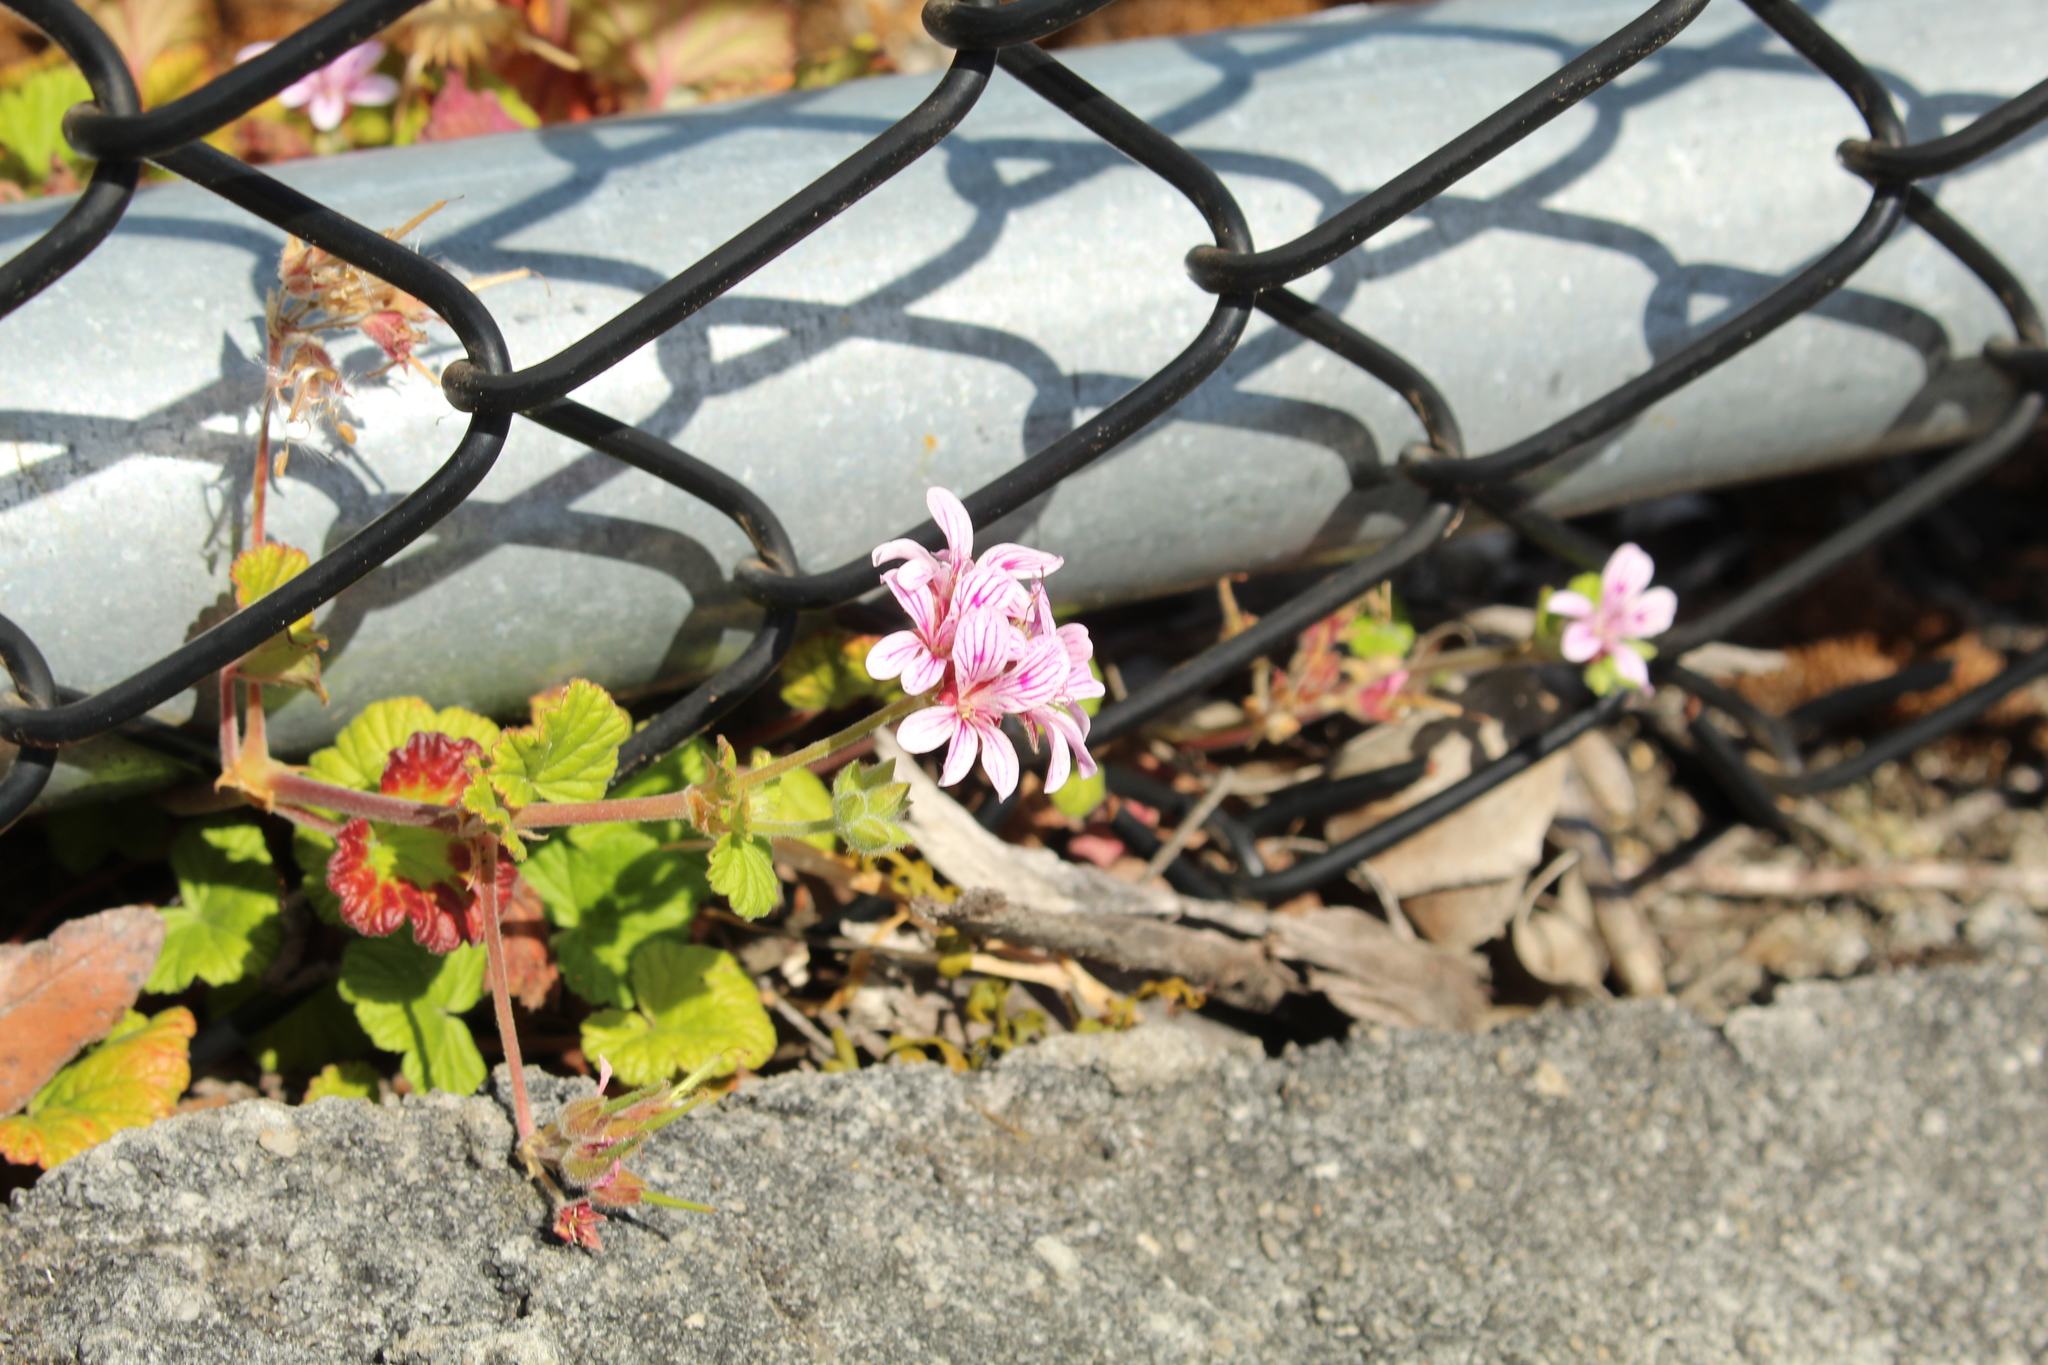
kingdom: Plantae
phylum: Tracheophyta
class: Magnoliopsida
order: Geraniales
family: Geraniaceae
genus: Pelargonium
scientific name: Pelargonium australe
